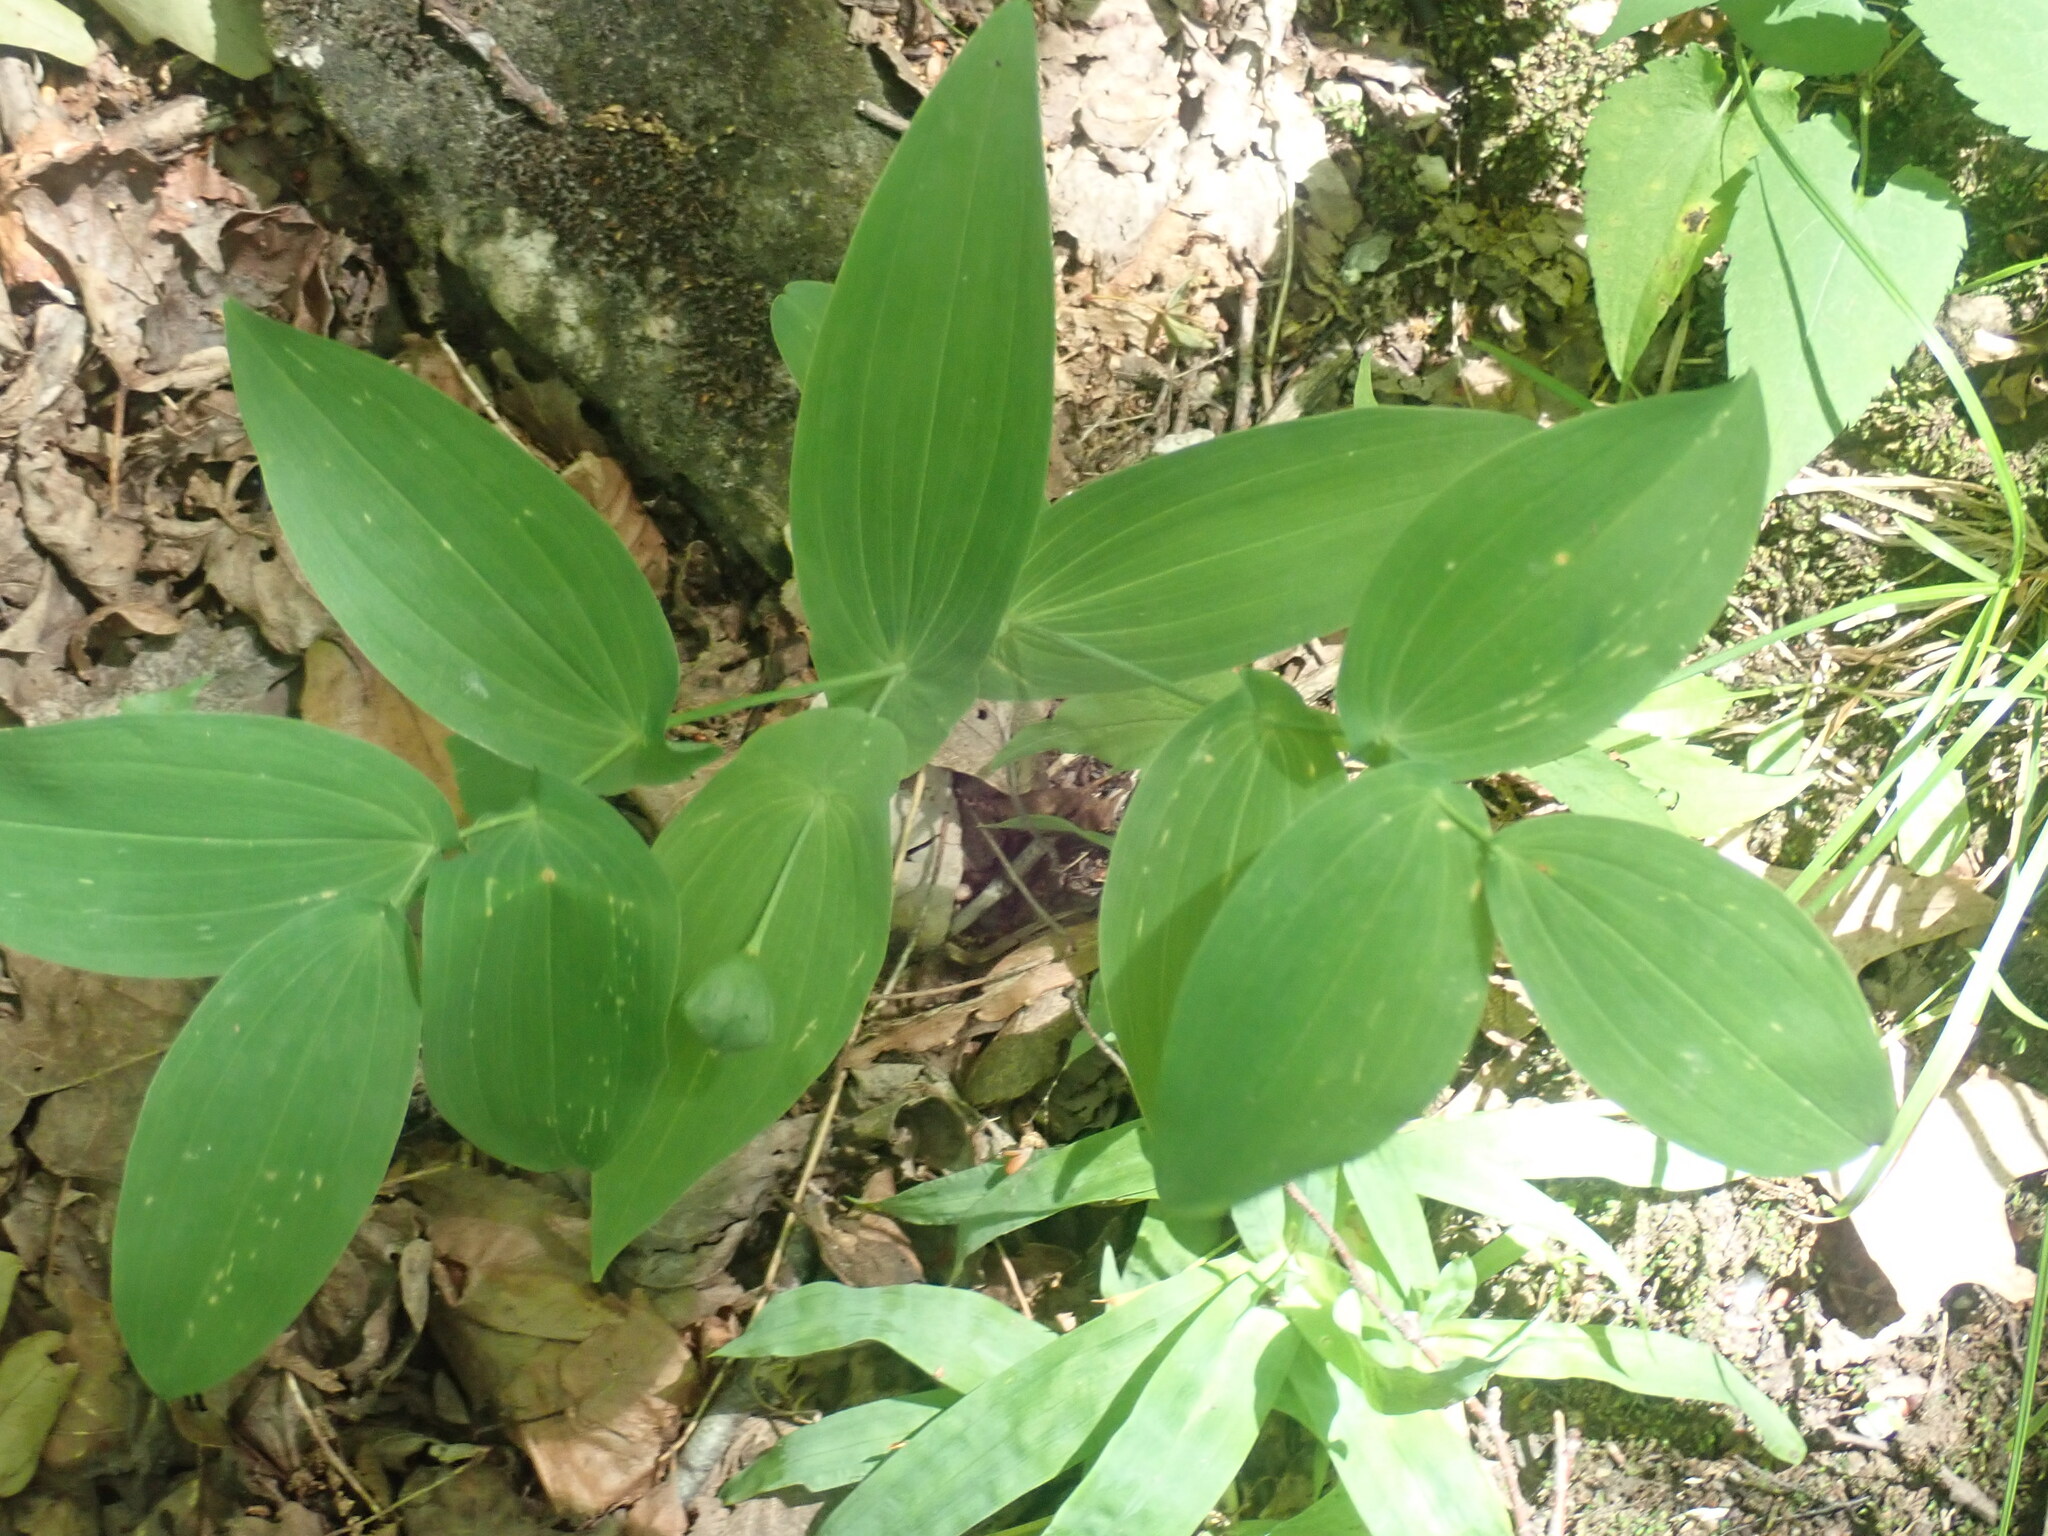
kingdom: Plantae
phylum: Tracheophyta
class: Liliopsida
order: Liliales
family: Colchicaceae
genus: Uvularia
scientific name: Uvularia grandiflora
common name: Bellwort
